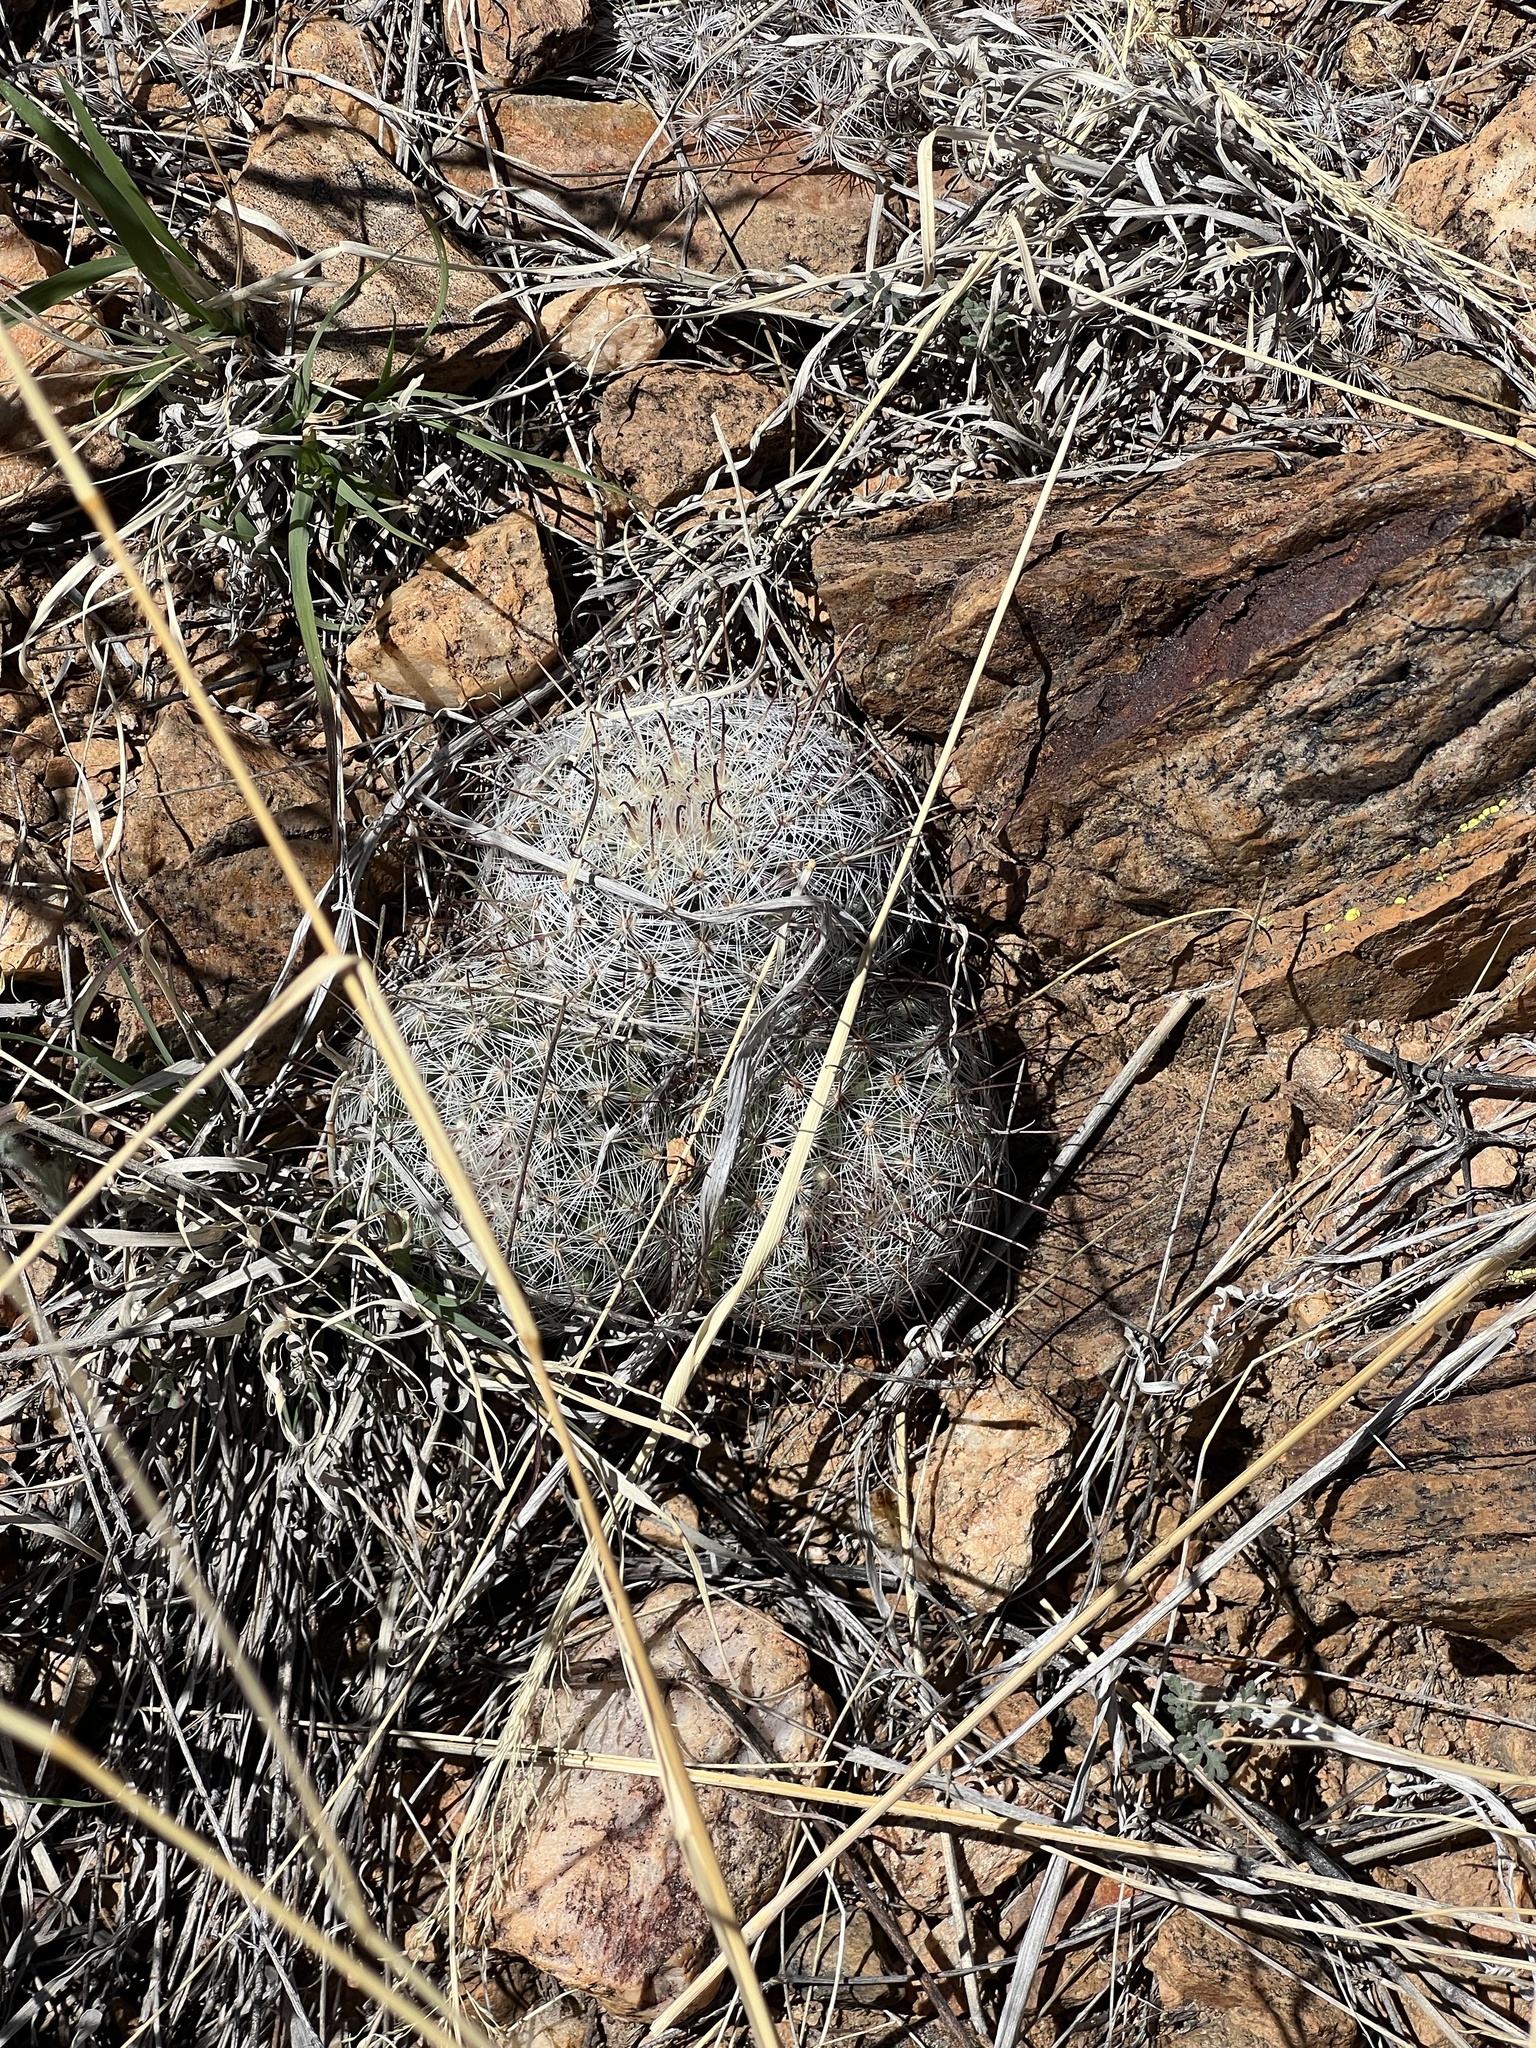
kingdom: Plantae
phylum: Tracheophyta
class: Magnoliopsida
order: Caryophyllales
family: Cactaceae
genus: Cochemiea
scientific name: Cochemiea grahamii
